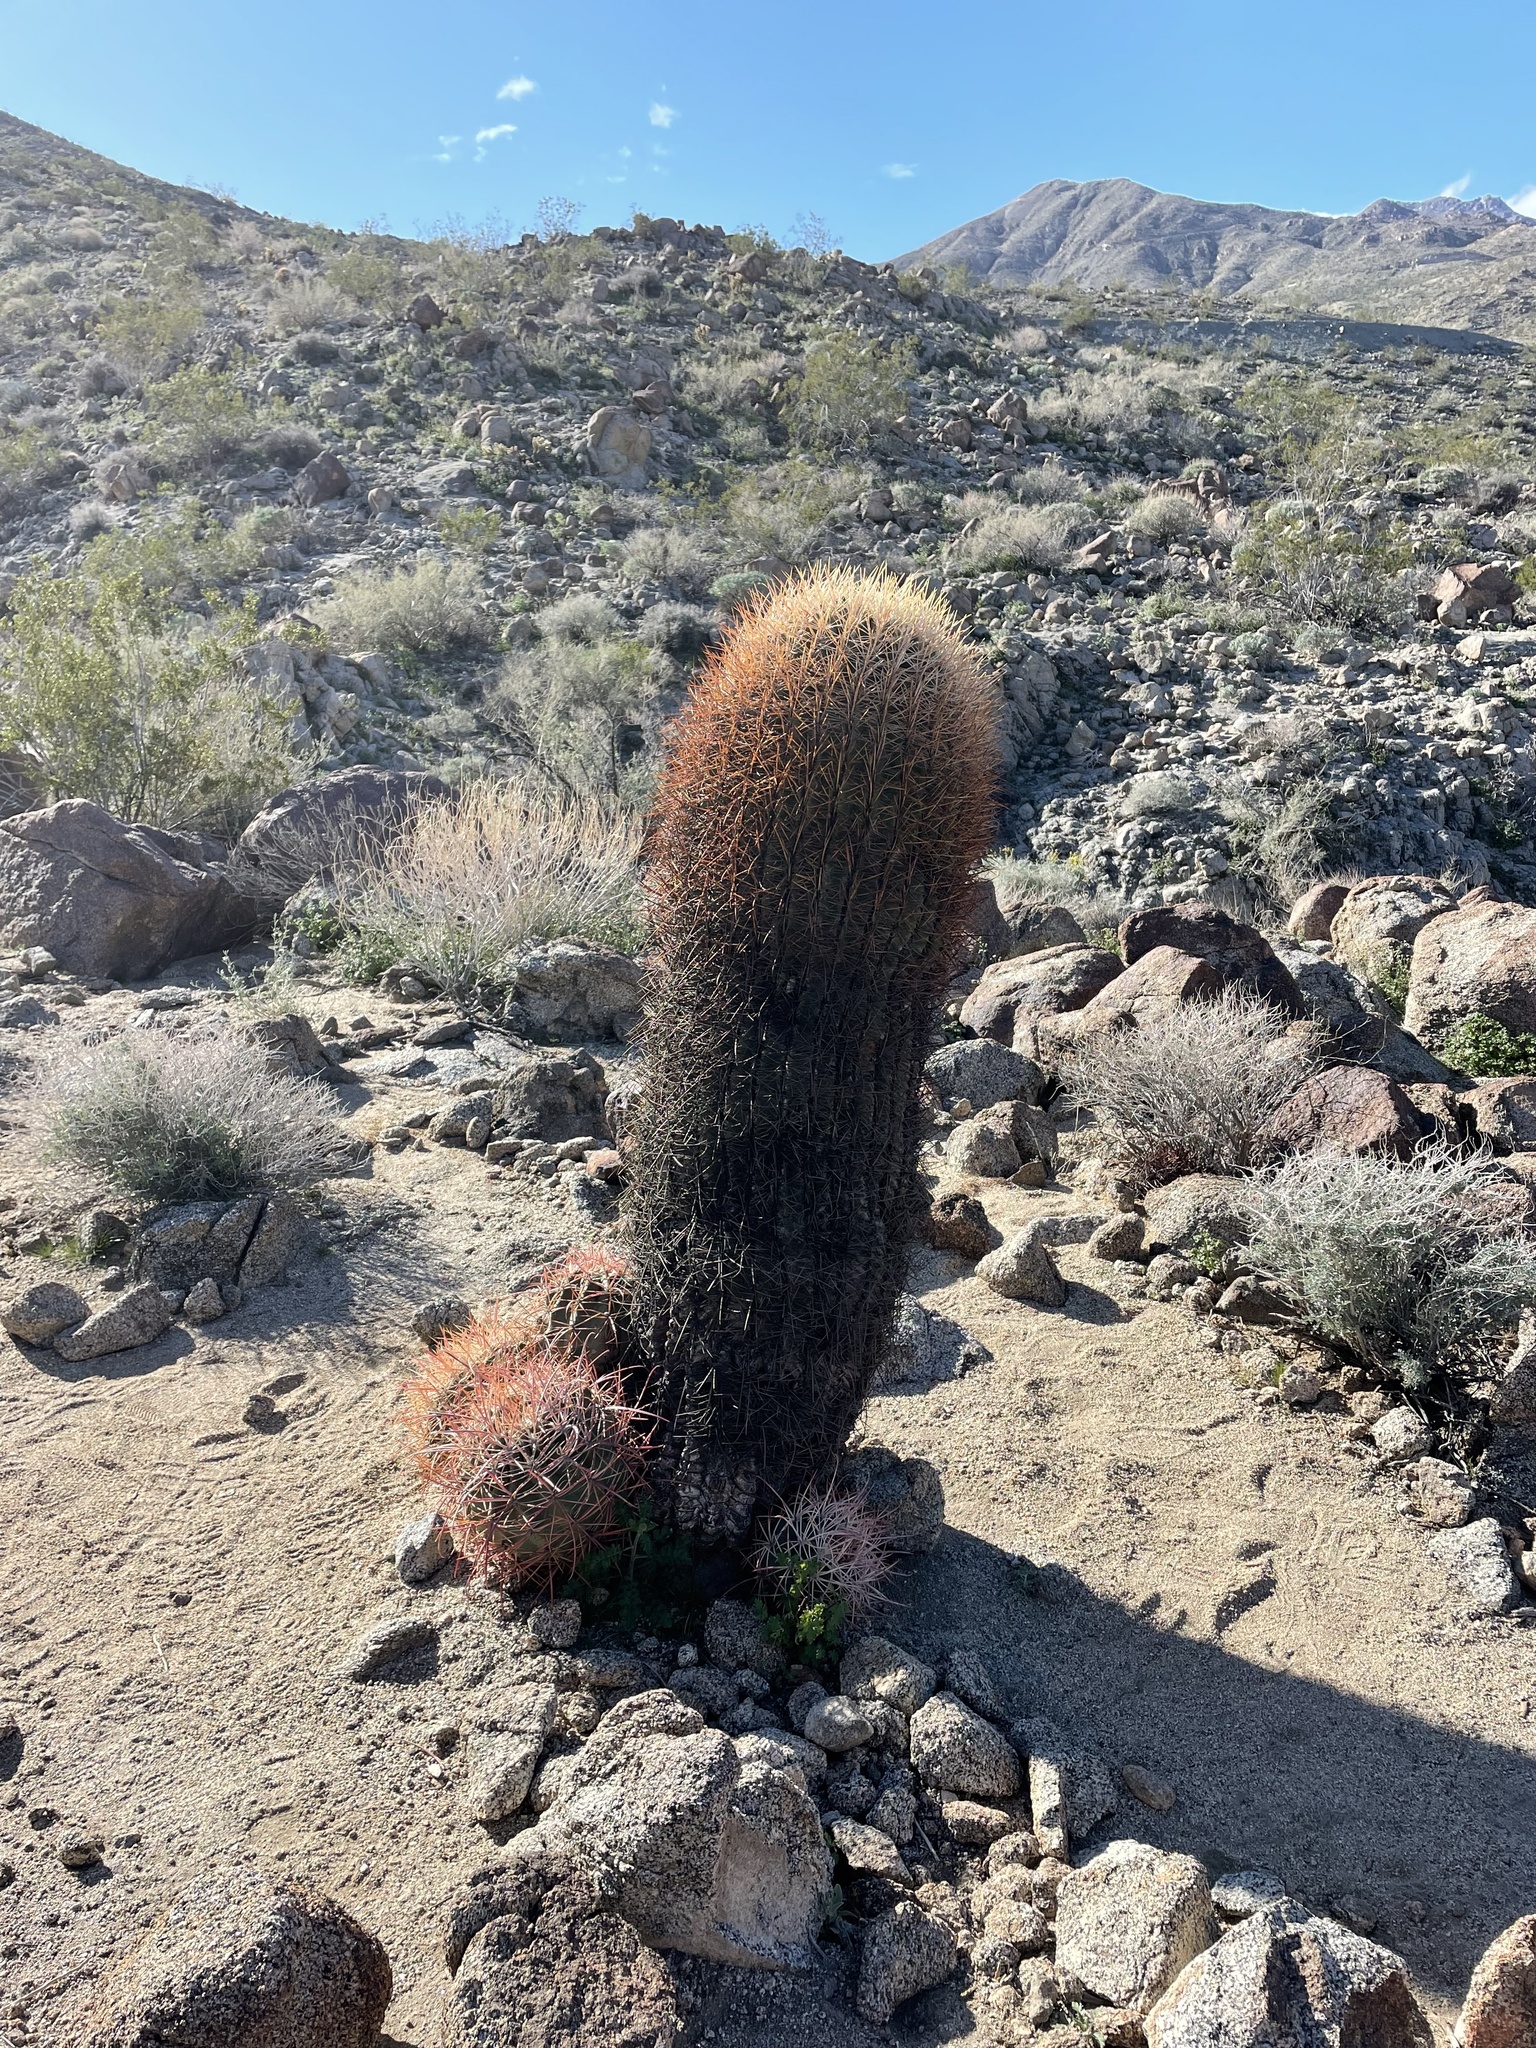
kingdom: Plantae
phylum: Tracheophyta
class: Magnoliopsida
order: Caryophyllales
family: Cactaceae
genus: Ferocactus
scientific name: Ferocactus cylindraceus
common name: California barrel cactus
